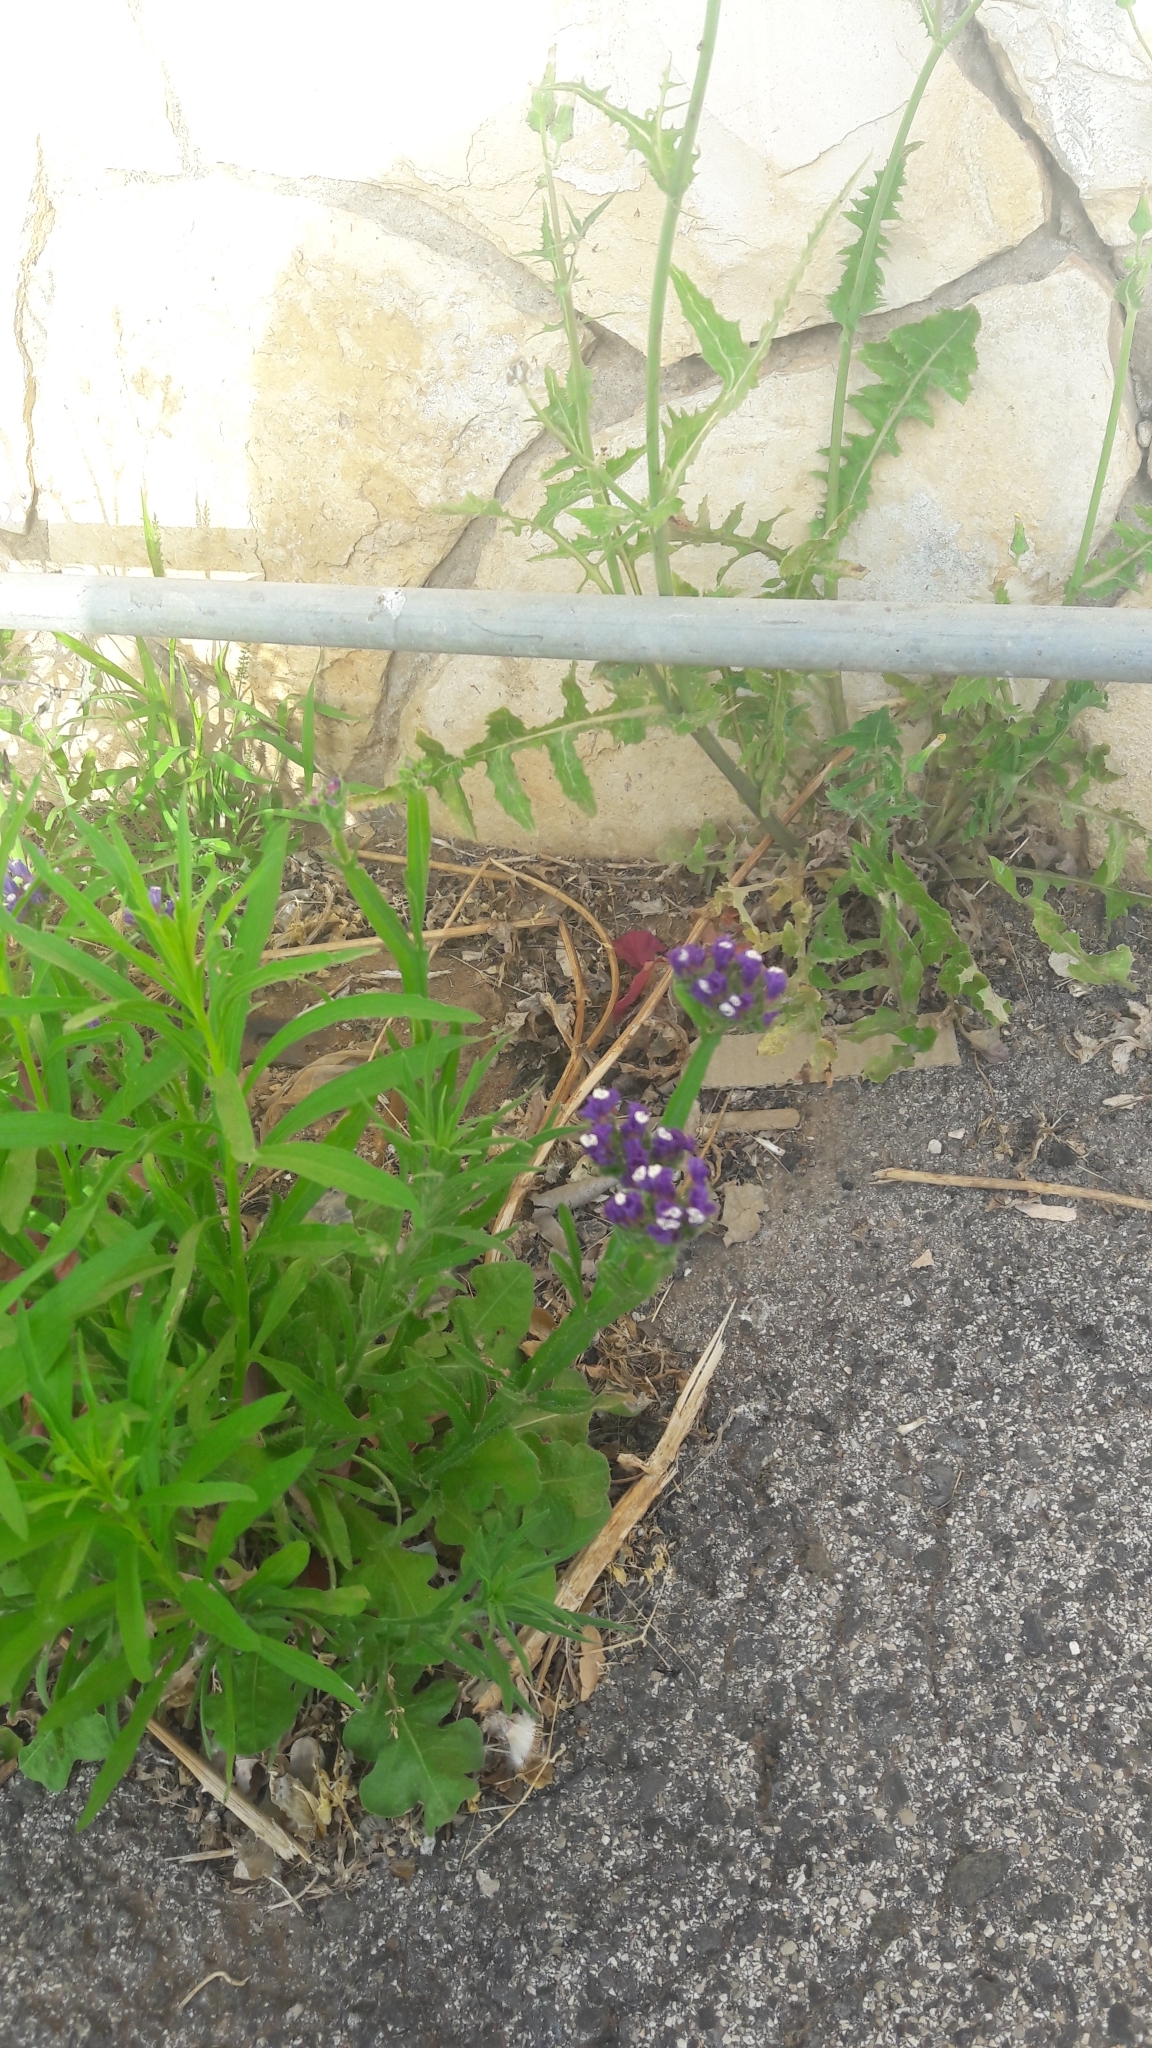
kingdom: Plantae
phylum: Tracheophyta
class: Magnoliopsida
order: Caryophyllales
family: Plumbaginaceae
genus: Limonium
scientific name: Limonium sinuatum
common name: Statice
